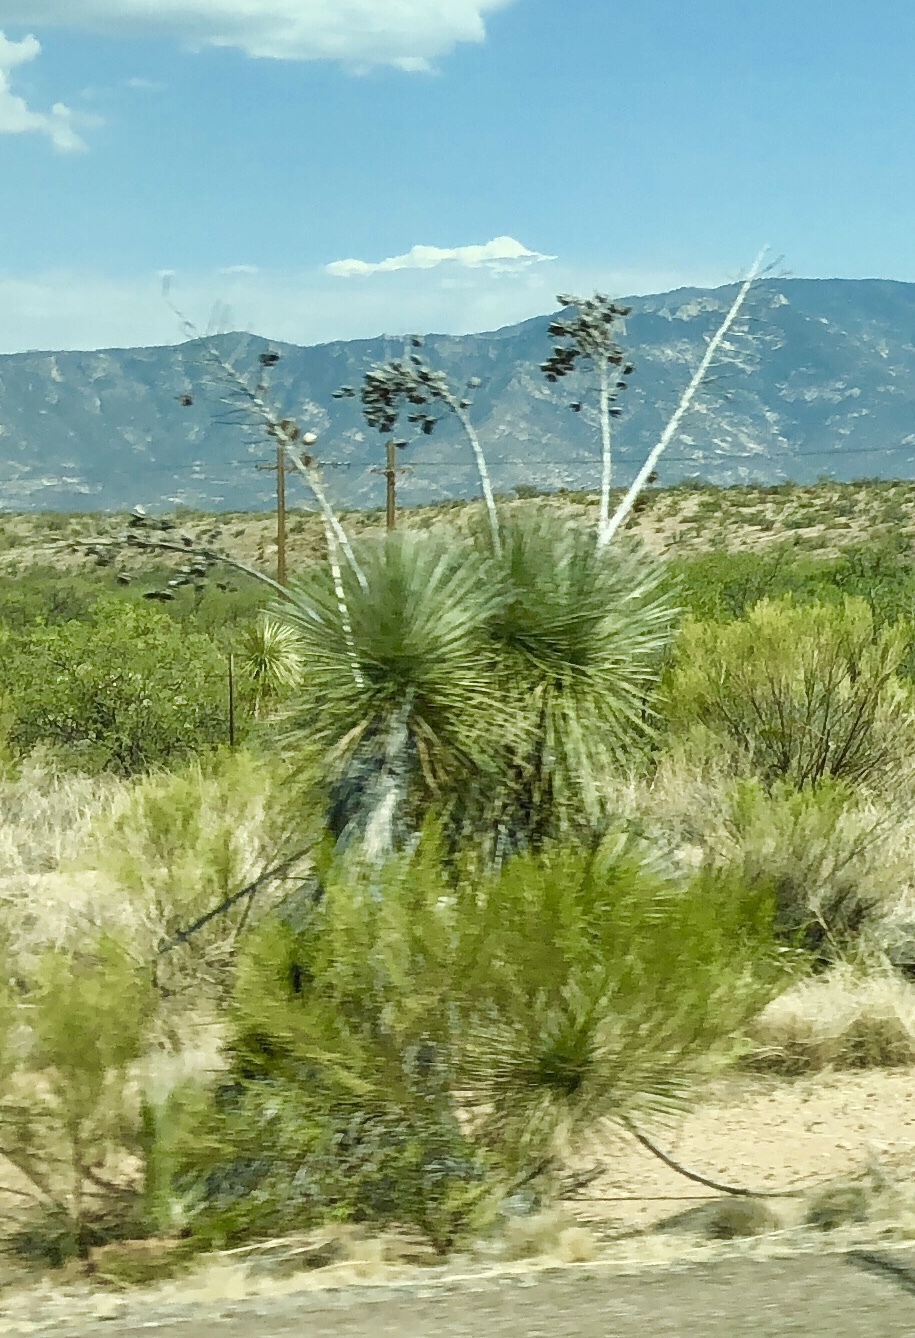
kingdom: Plantae
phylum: Tracheophyta
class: Liliopsida
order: Asparagales
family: Asparagaceae
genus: Yucca
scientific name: Yucca elata
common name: Palmella
